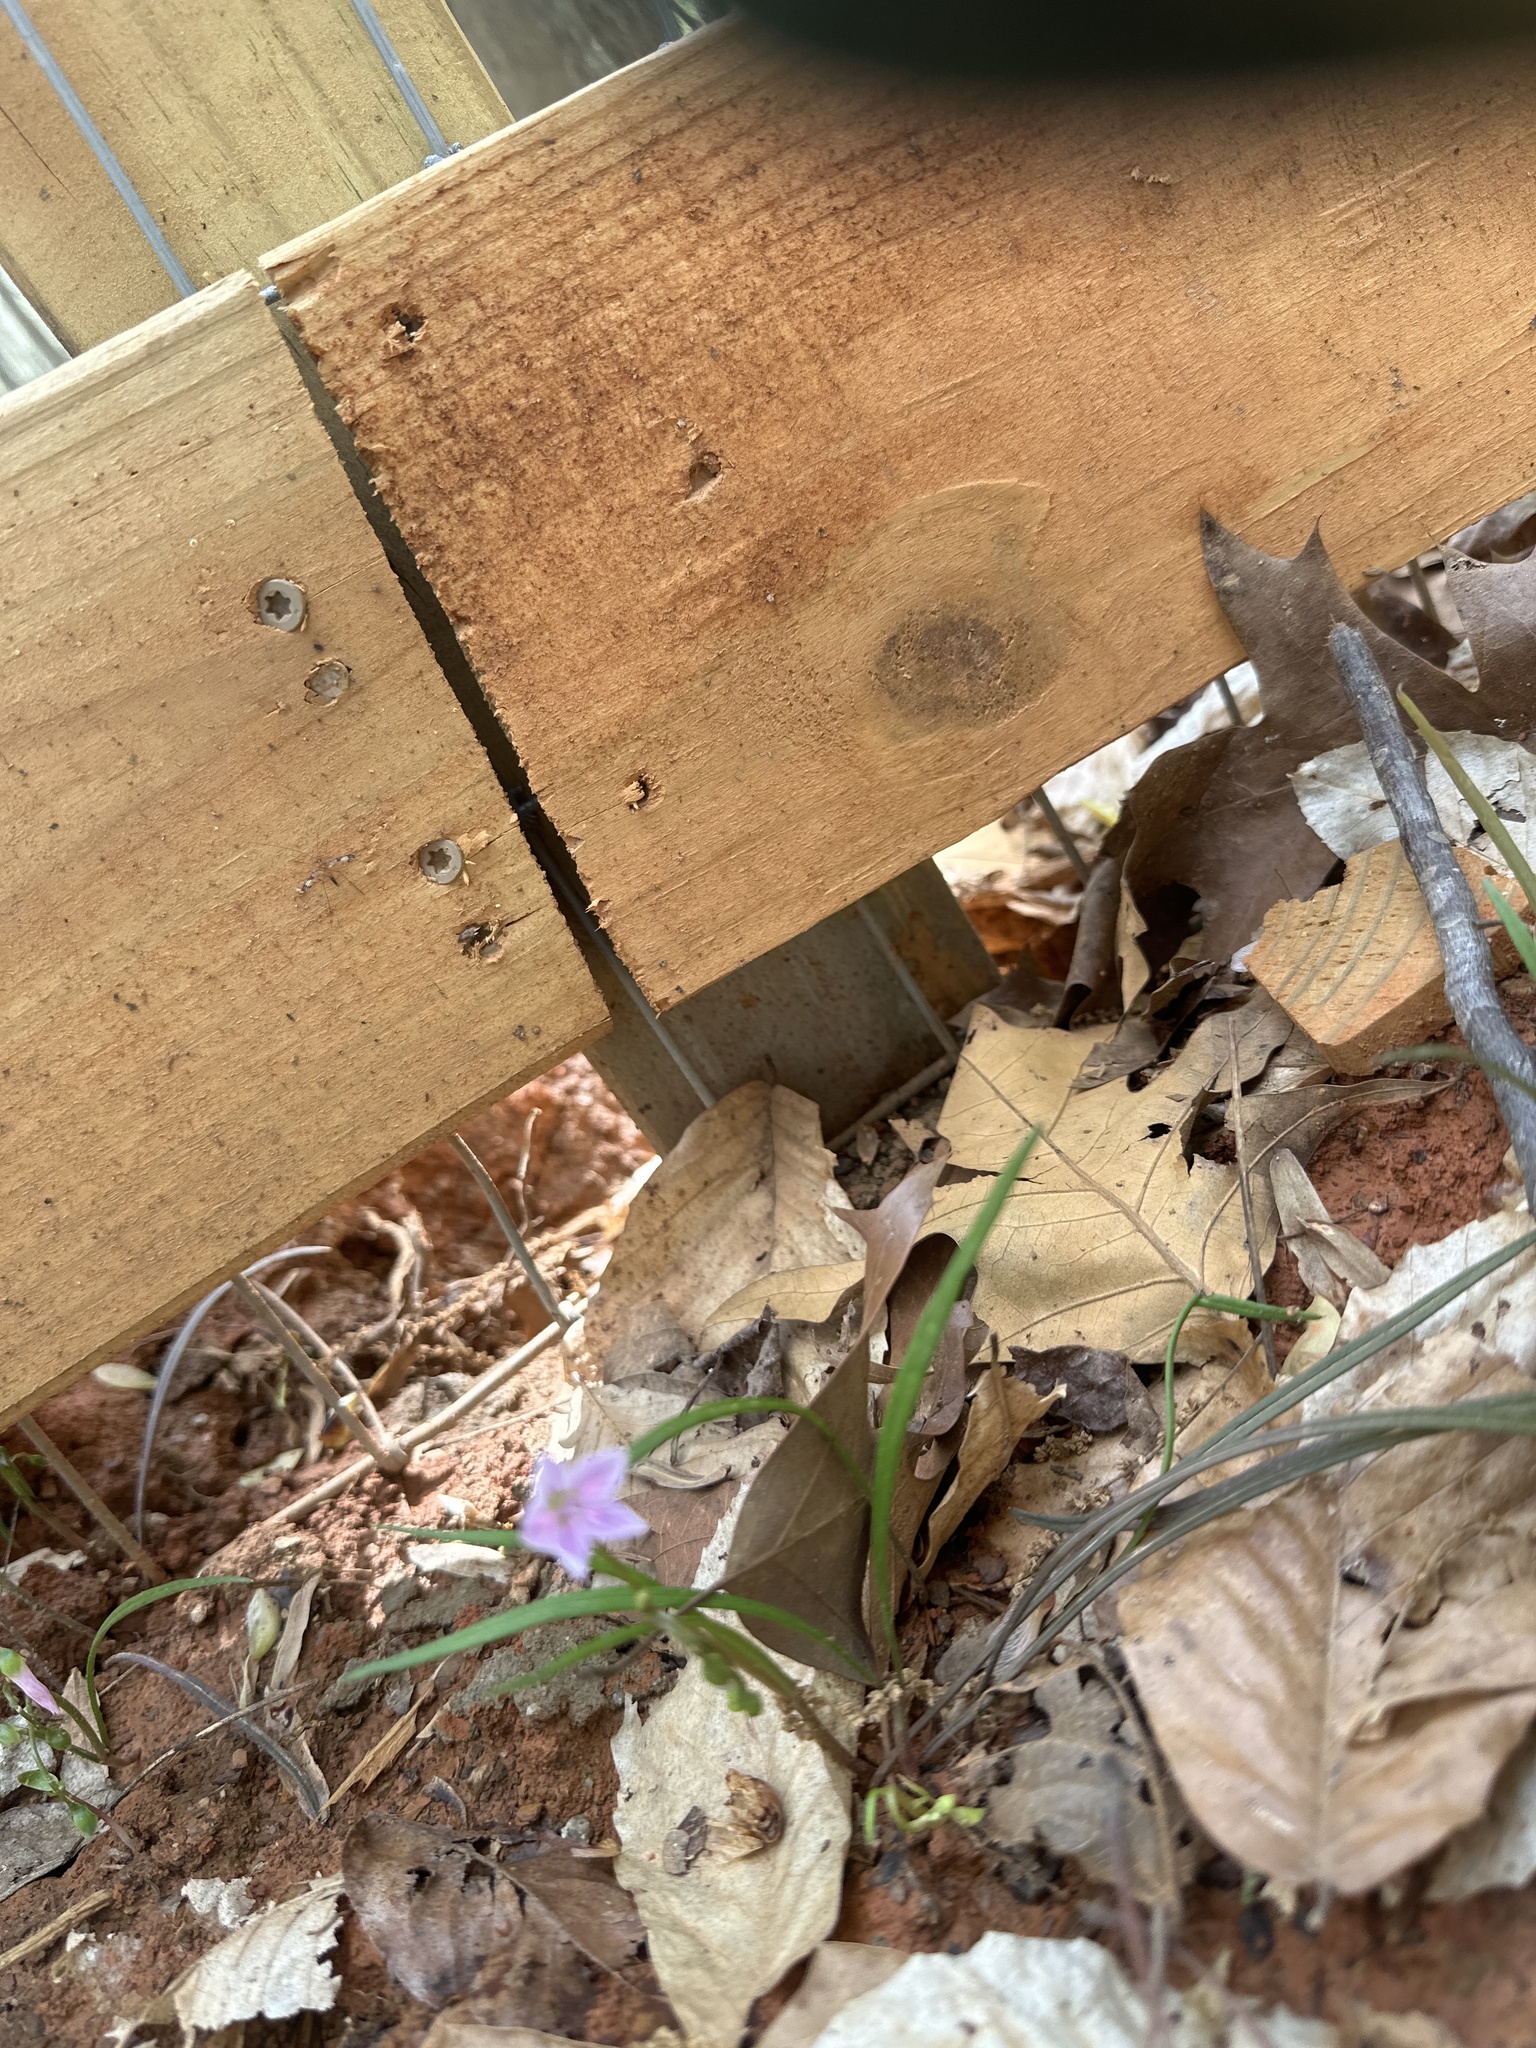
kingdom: Plantae
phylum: Tracheophyta
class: Magnoliopsida
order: Caryophyllales
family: Montiaceae
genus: Claytonia
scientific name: Claytonia virginica
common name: Virginia springbeauty
